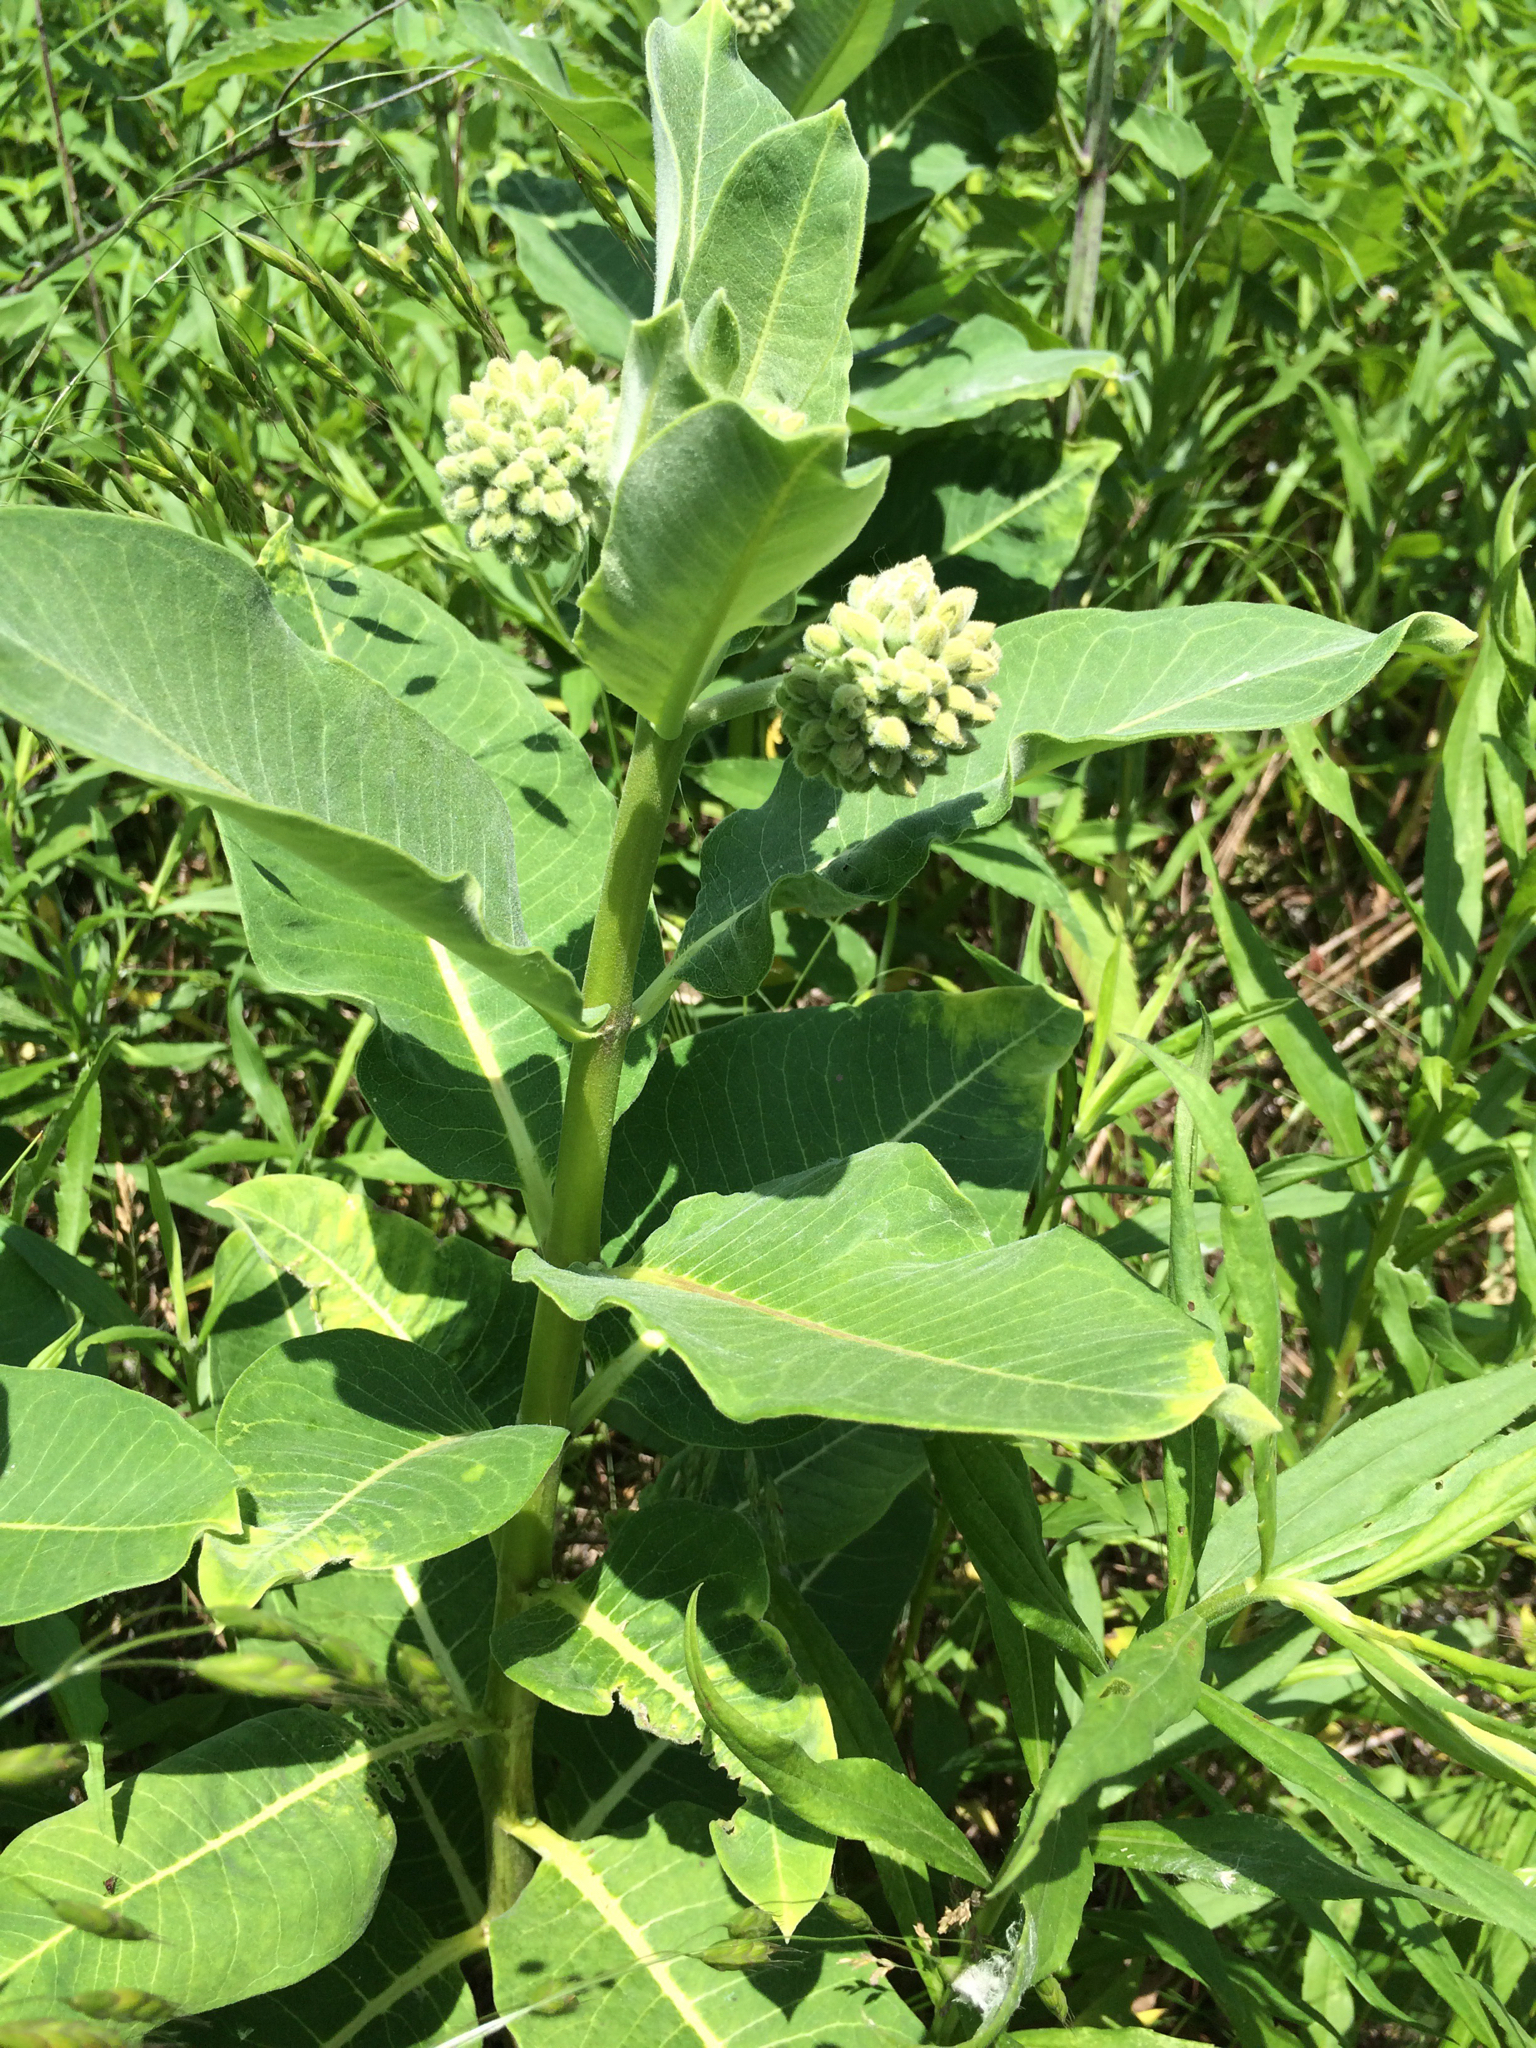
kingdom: Plantae
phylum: Tracheophyta
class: Magnoliopsida
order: Gentianales
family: Apocynaceae
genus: Asclepias
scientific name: Asclepias syriaca
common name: Common milkweed
